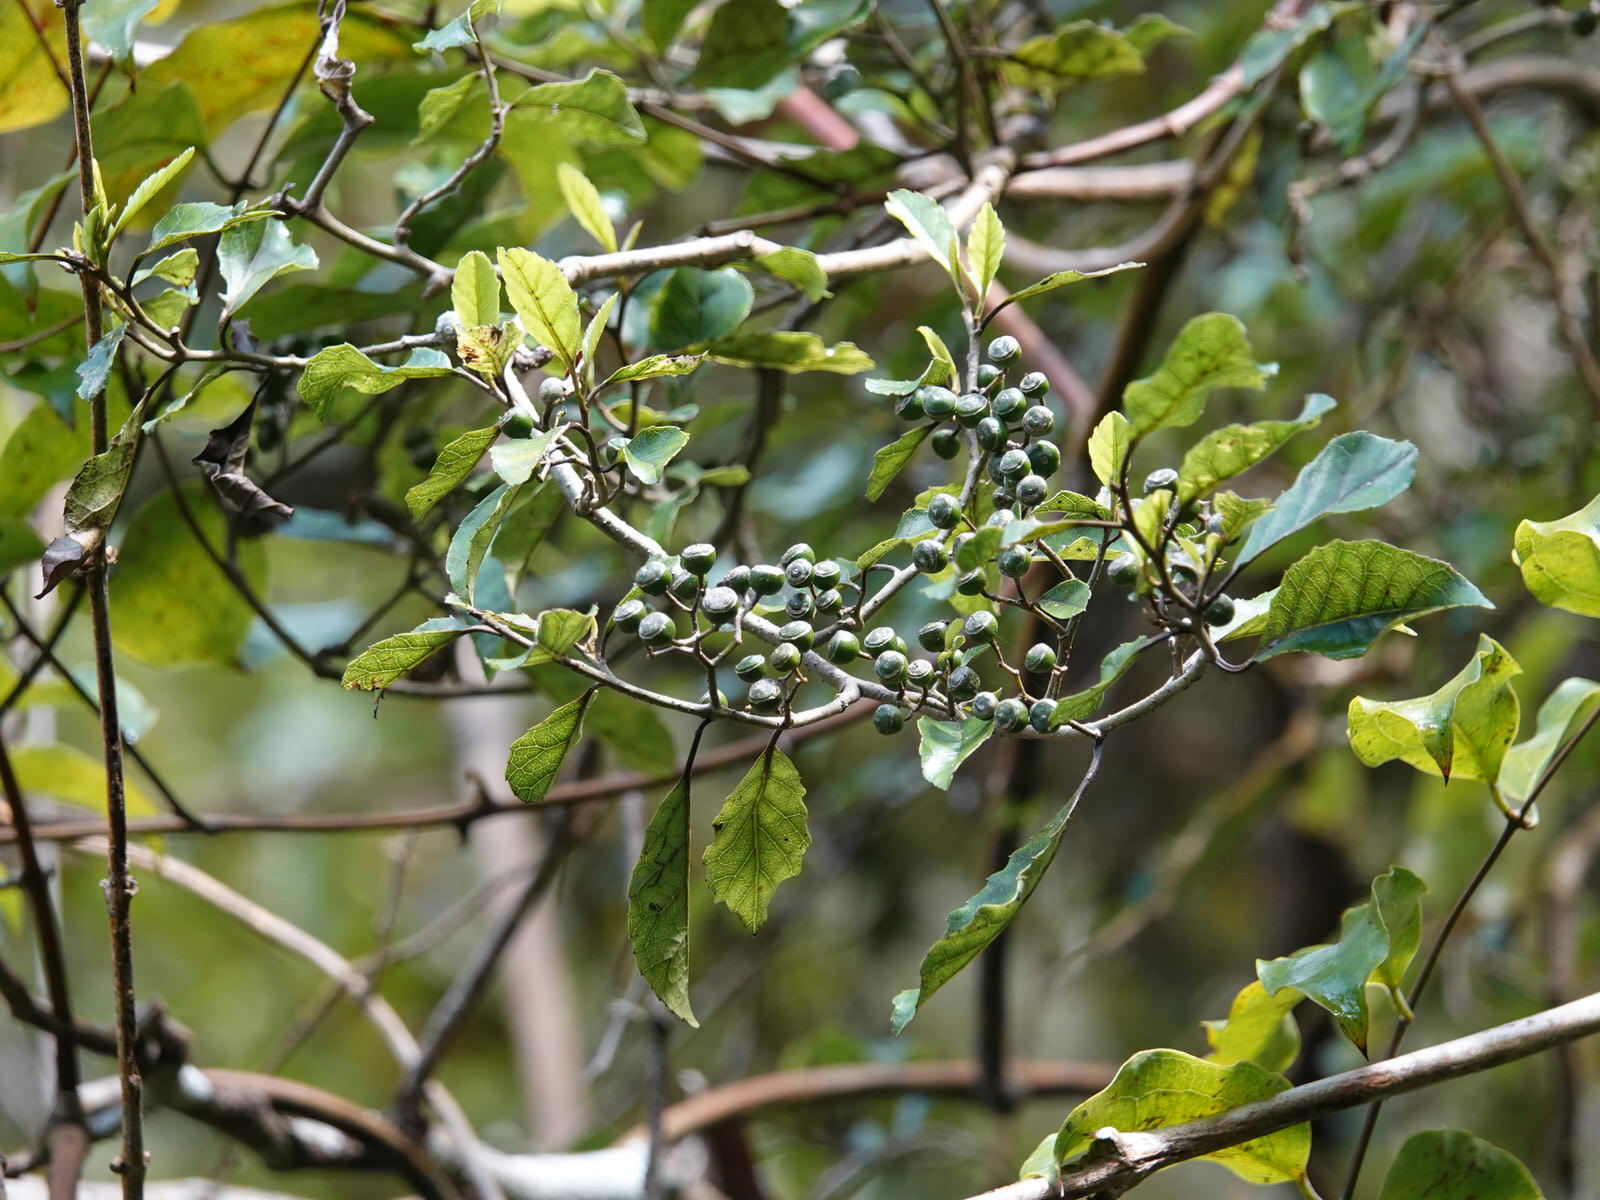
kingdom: Plantae
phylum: Tracheophyta
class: Magnoliopsida
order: Asterales
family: Rousseaceae
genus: Carpodetus
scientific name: Carpodetus serratus
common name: White mapau
